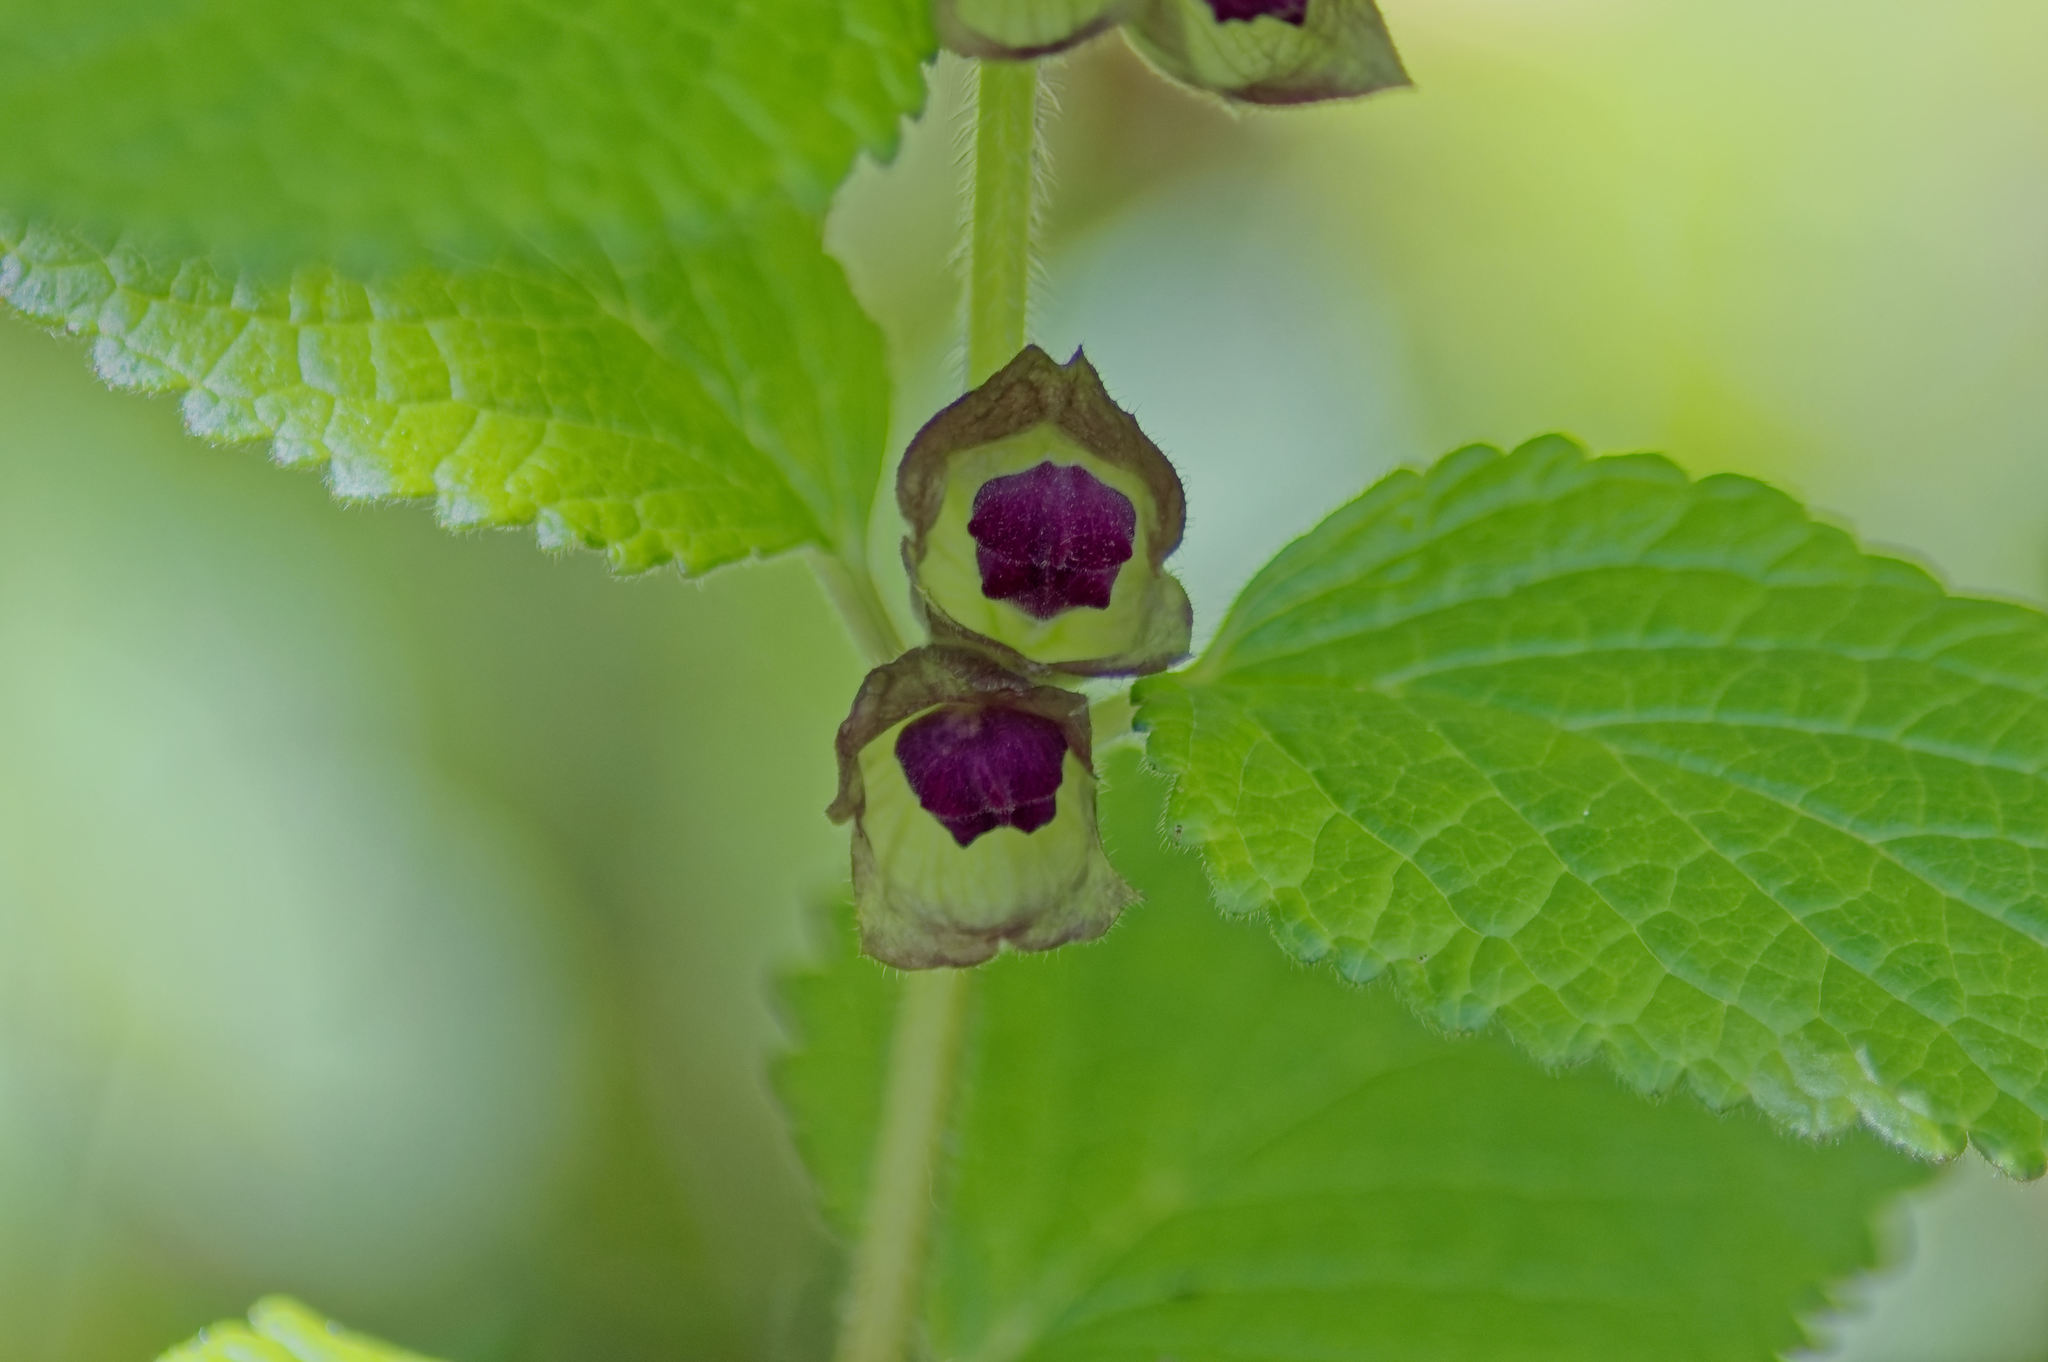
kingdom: Plantae
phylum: Tracheophyta
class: Magnoliopsida
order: Lamiales
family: Lamiaceae
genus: Melittis
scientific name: Melittis melissophyllum
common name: Bastard balm
